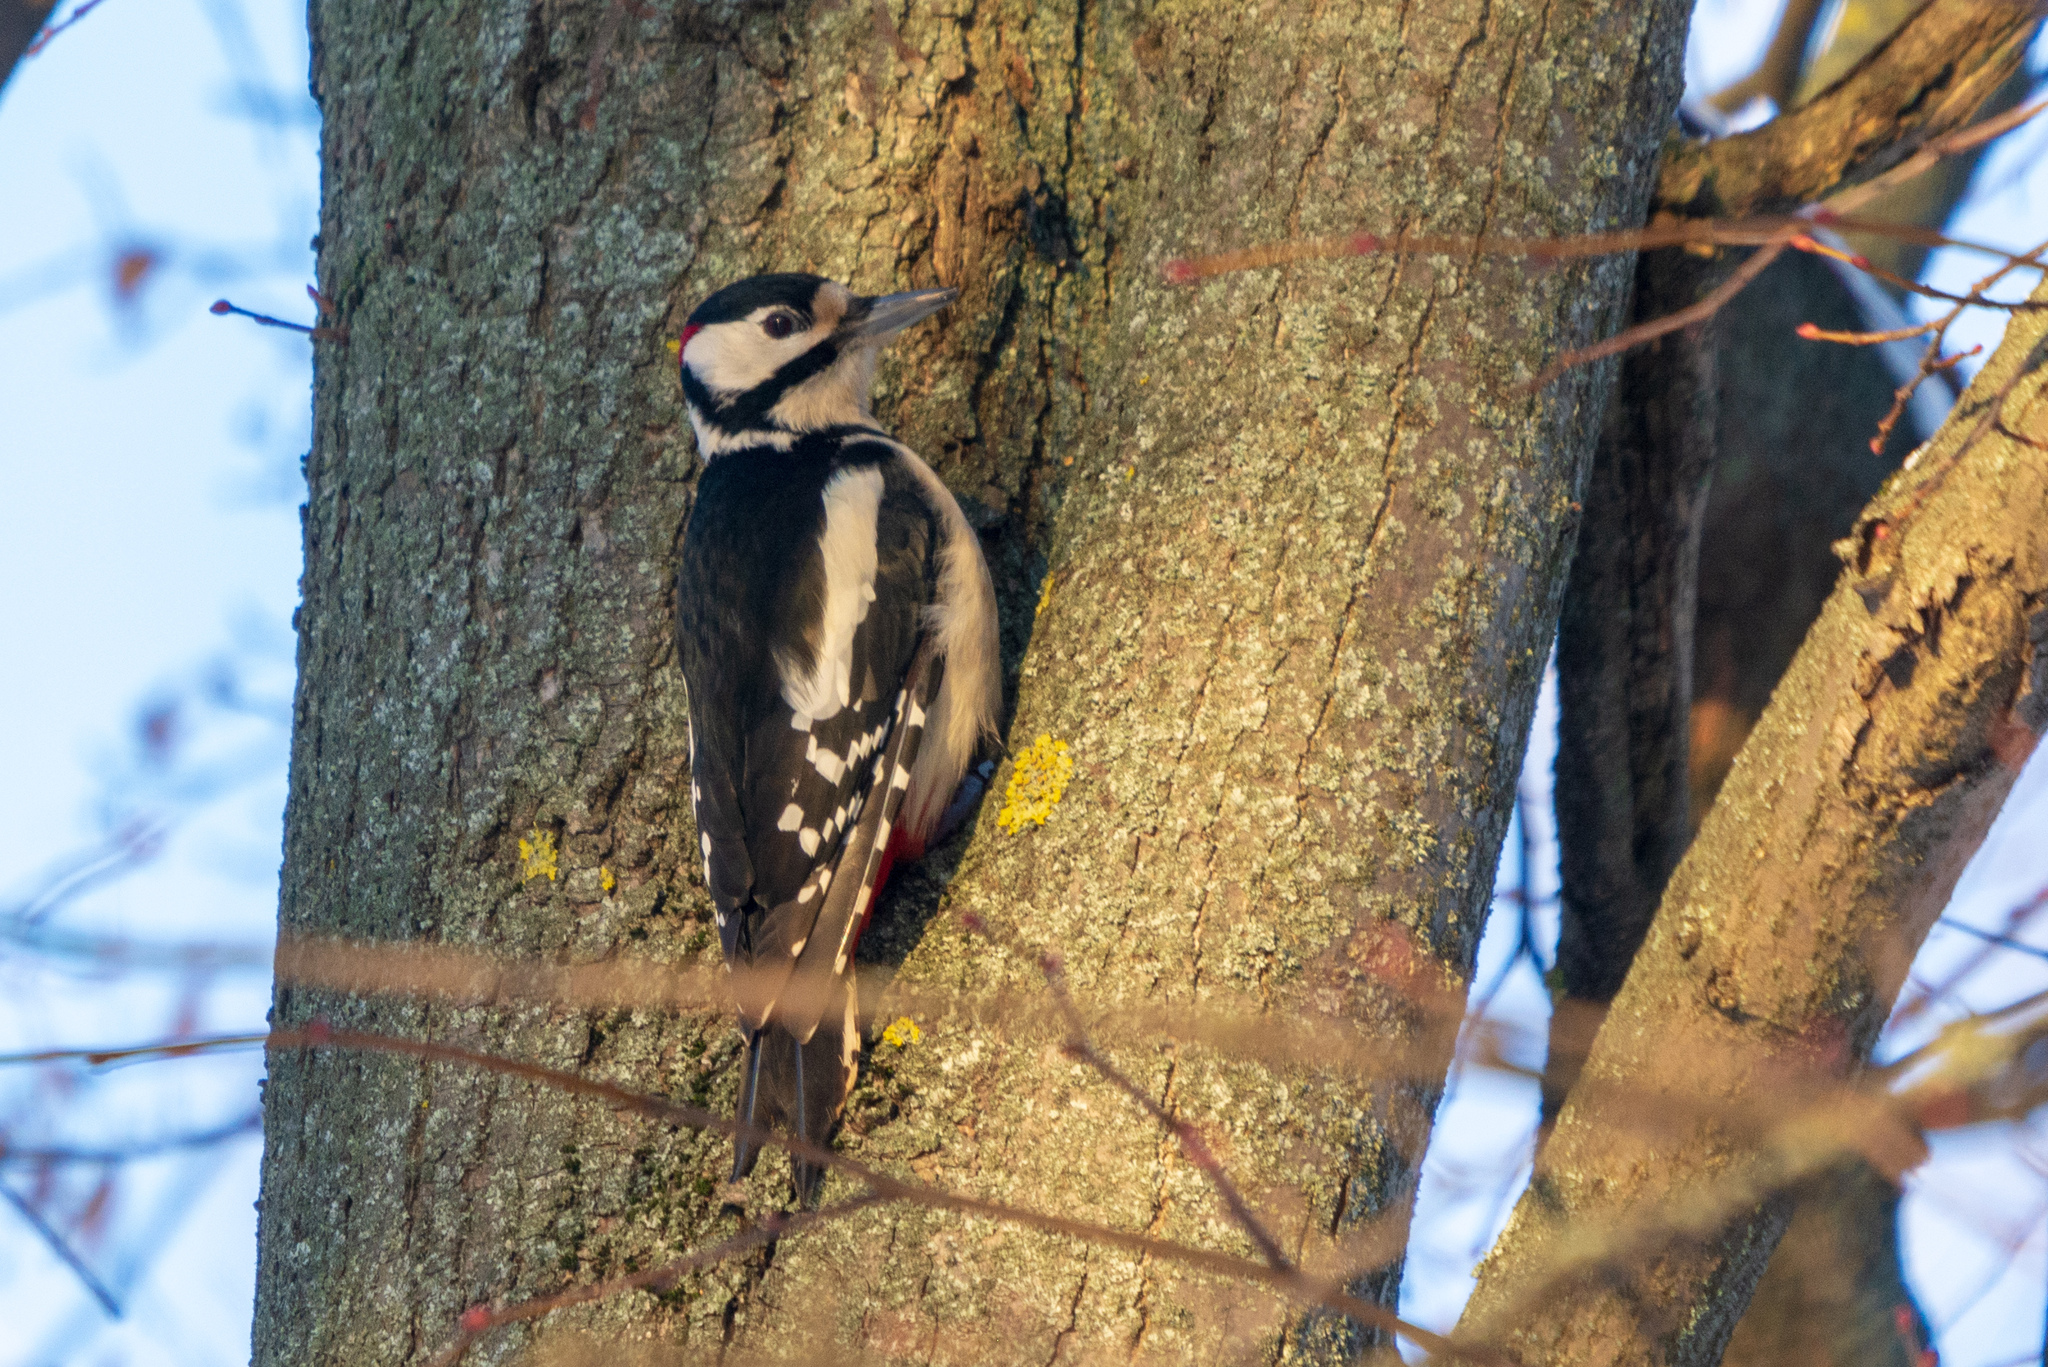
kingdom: Animalia
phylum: Chordata
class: Aves
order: Piciformes
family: Picidae
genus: Dendrocopos
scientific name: Dendrocopos major
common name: Great spotted woodpecker
